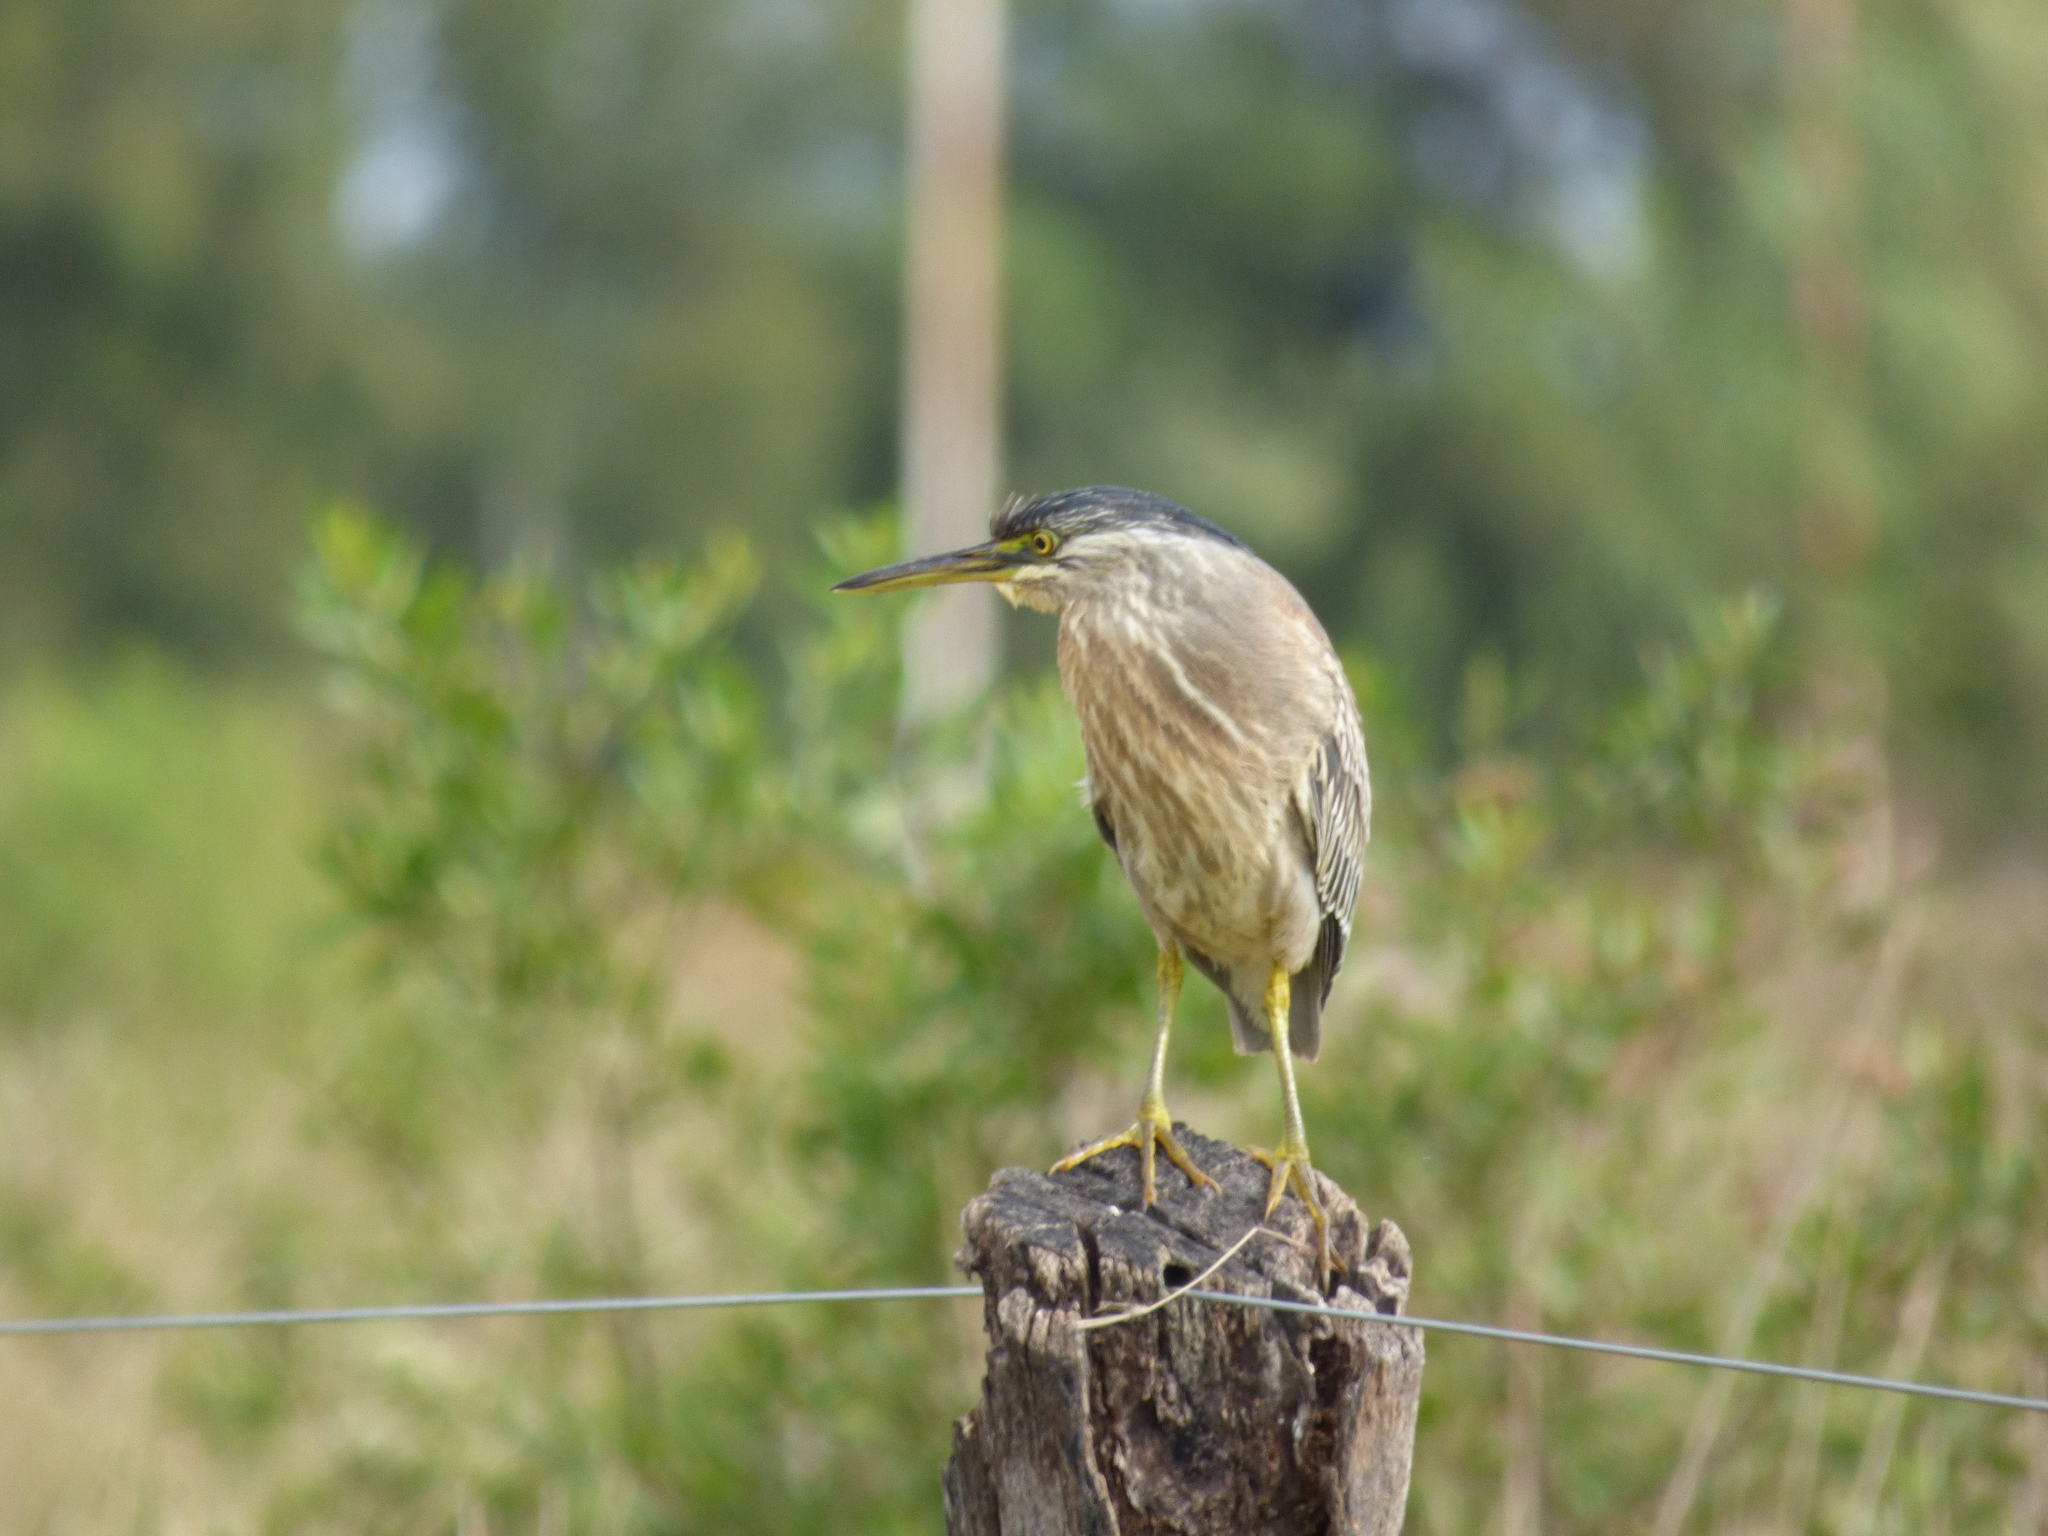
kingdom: Animalia
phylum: Chordata
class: Aves
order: Pelecaniformes
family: Ardeidae
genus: Butorides
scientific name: Butorides striata
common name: Striated heron
